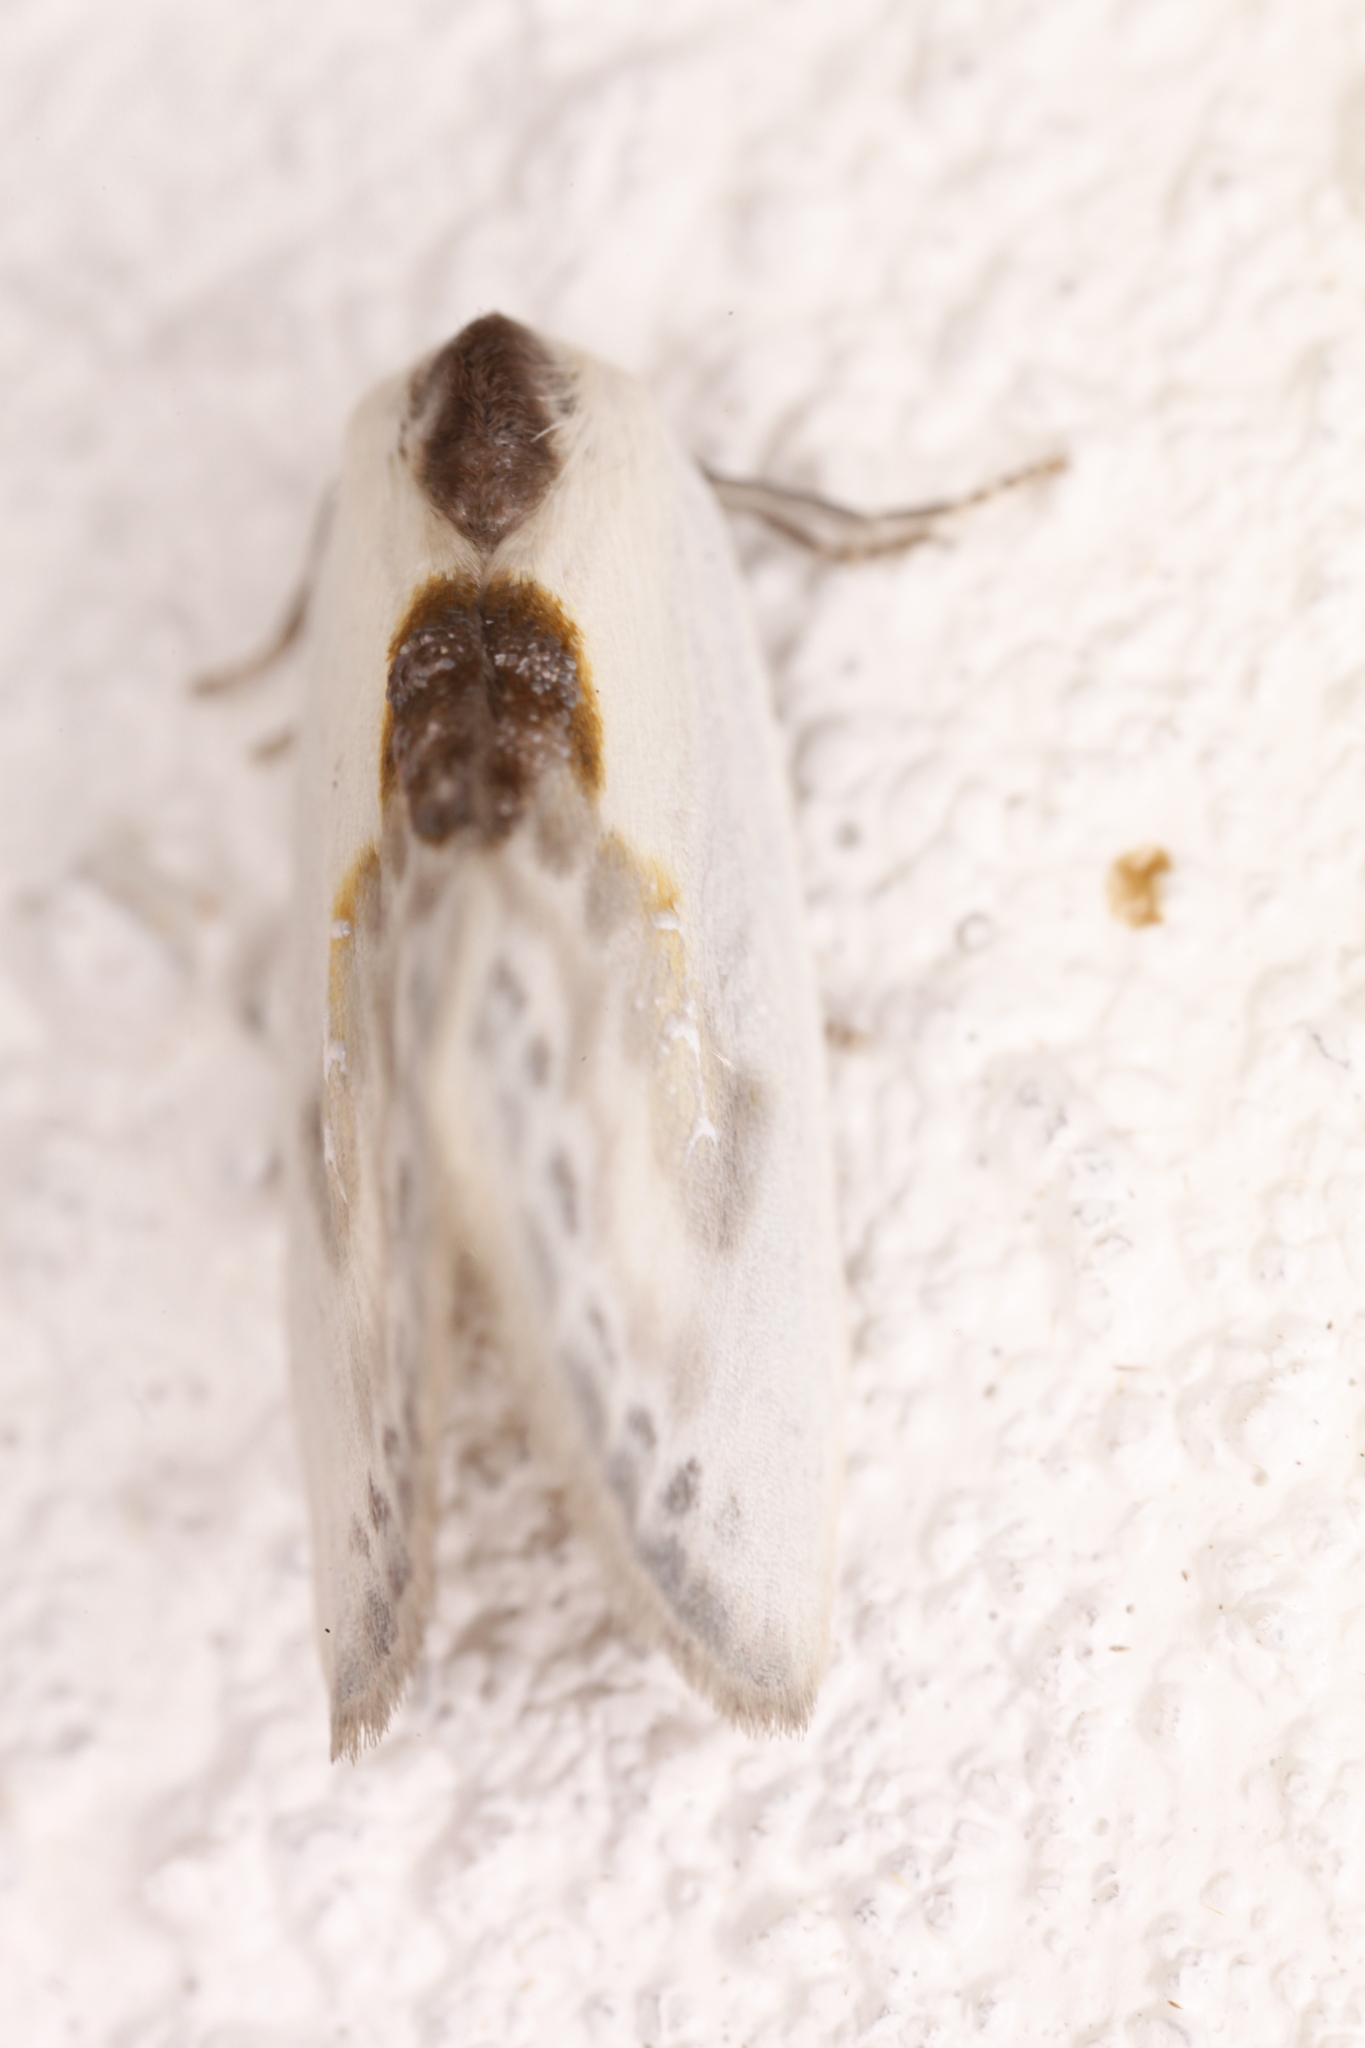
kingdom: Animalia
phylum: Arthropoda
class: Insecta
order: Lepidoptera
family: Drepanidae
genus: Cilix
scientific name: Cilix glaucata
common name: Chinese character
